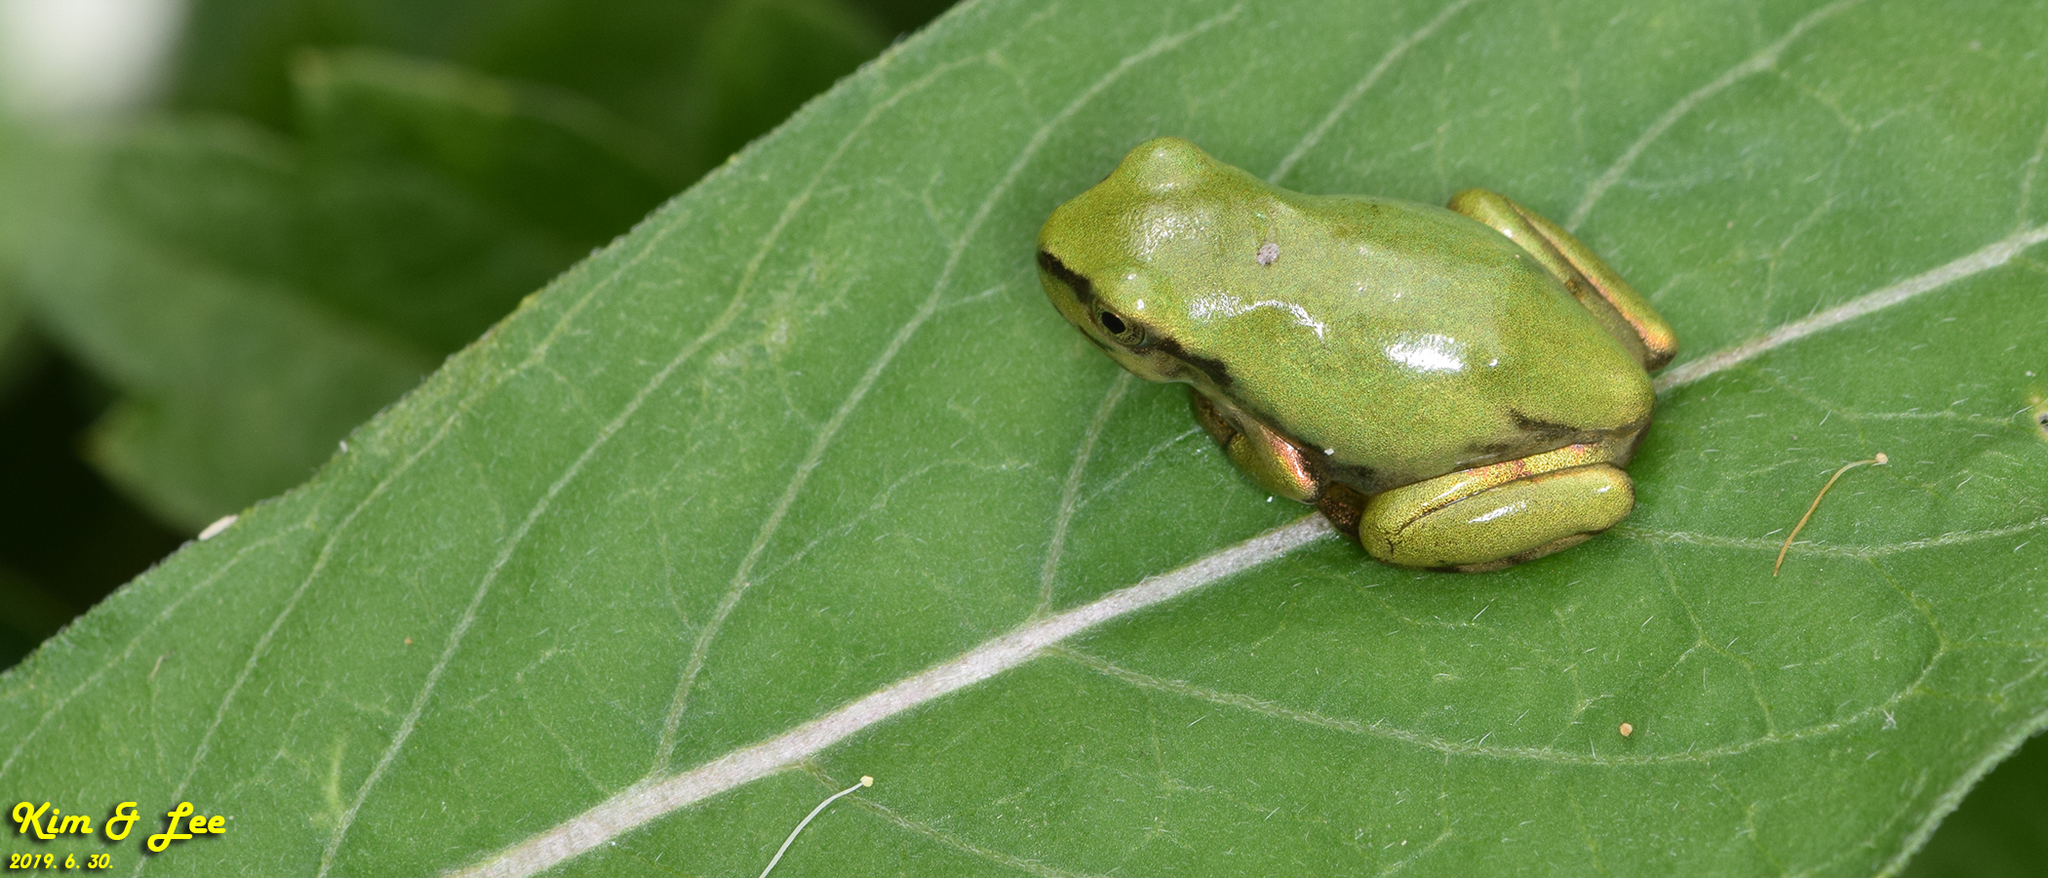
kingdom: Animalia
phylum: Chordata
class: Amphibia
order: Anura
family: Hylidae
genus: Dryophytes
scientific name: Dryophytes japonicus
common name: Japanese treefrog
